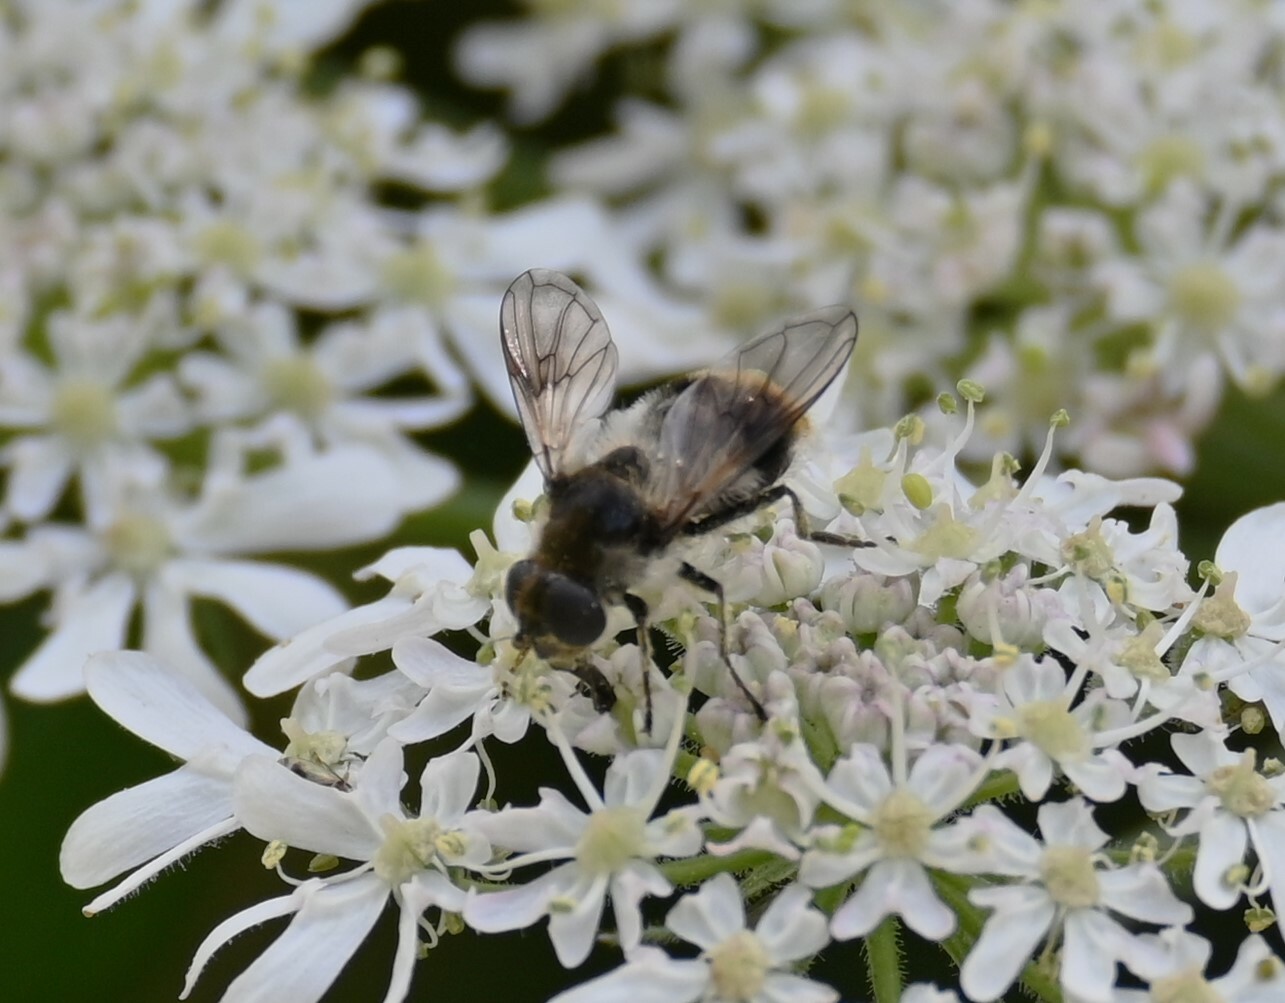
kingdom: Animalia
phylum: Arthropoda
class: Insecta
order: Diptera
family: Syrphidae
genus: Cheilosia
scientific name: Cheilosia illustrata
